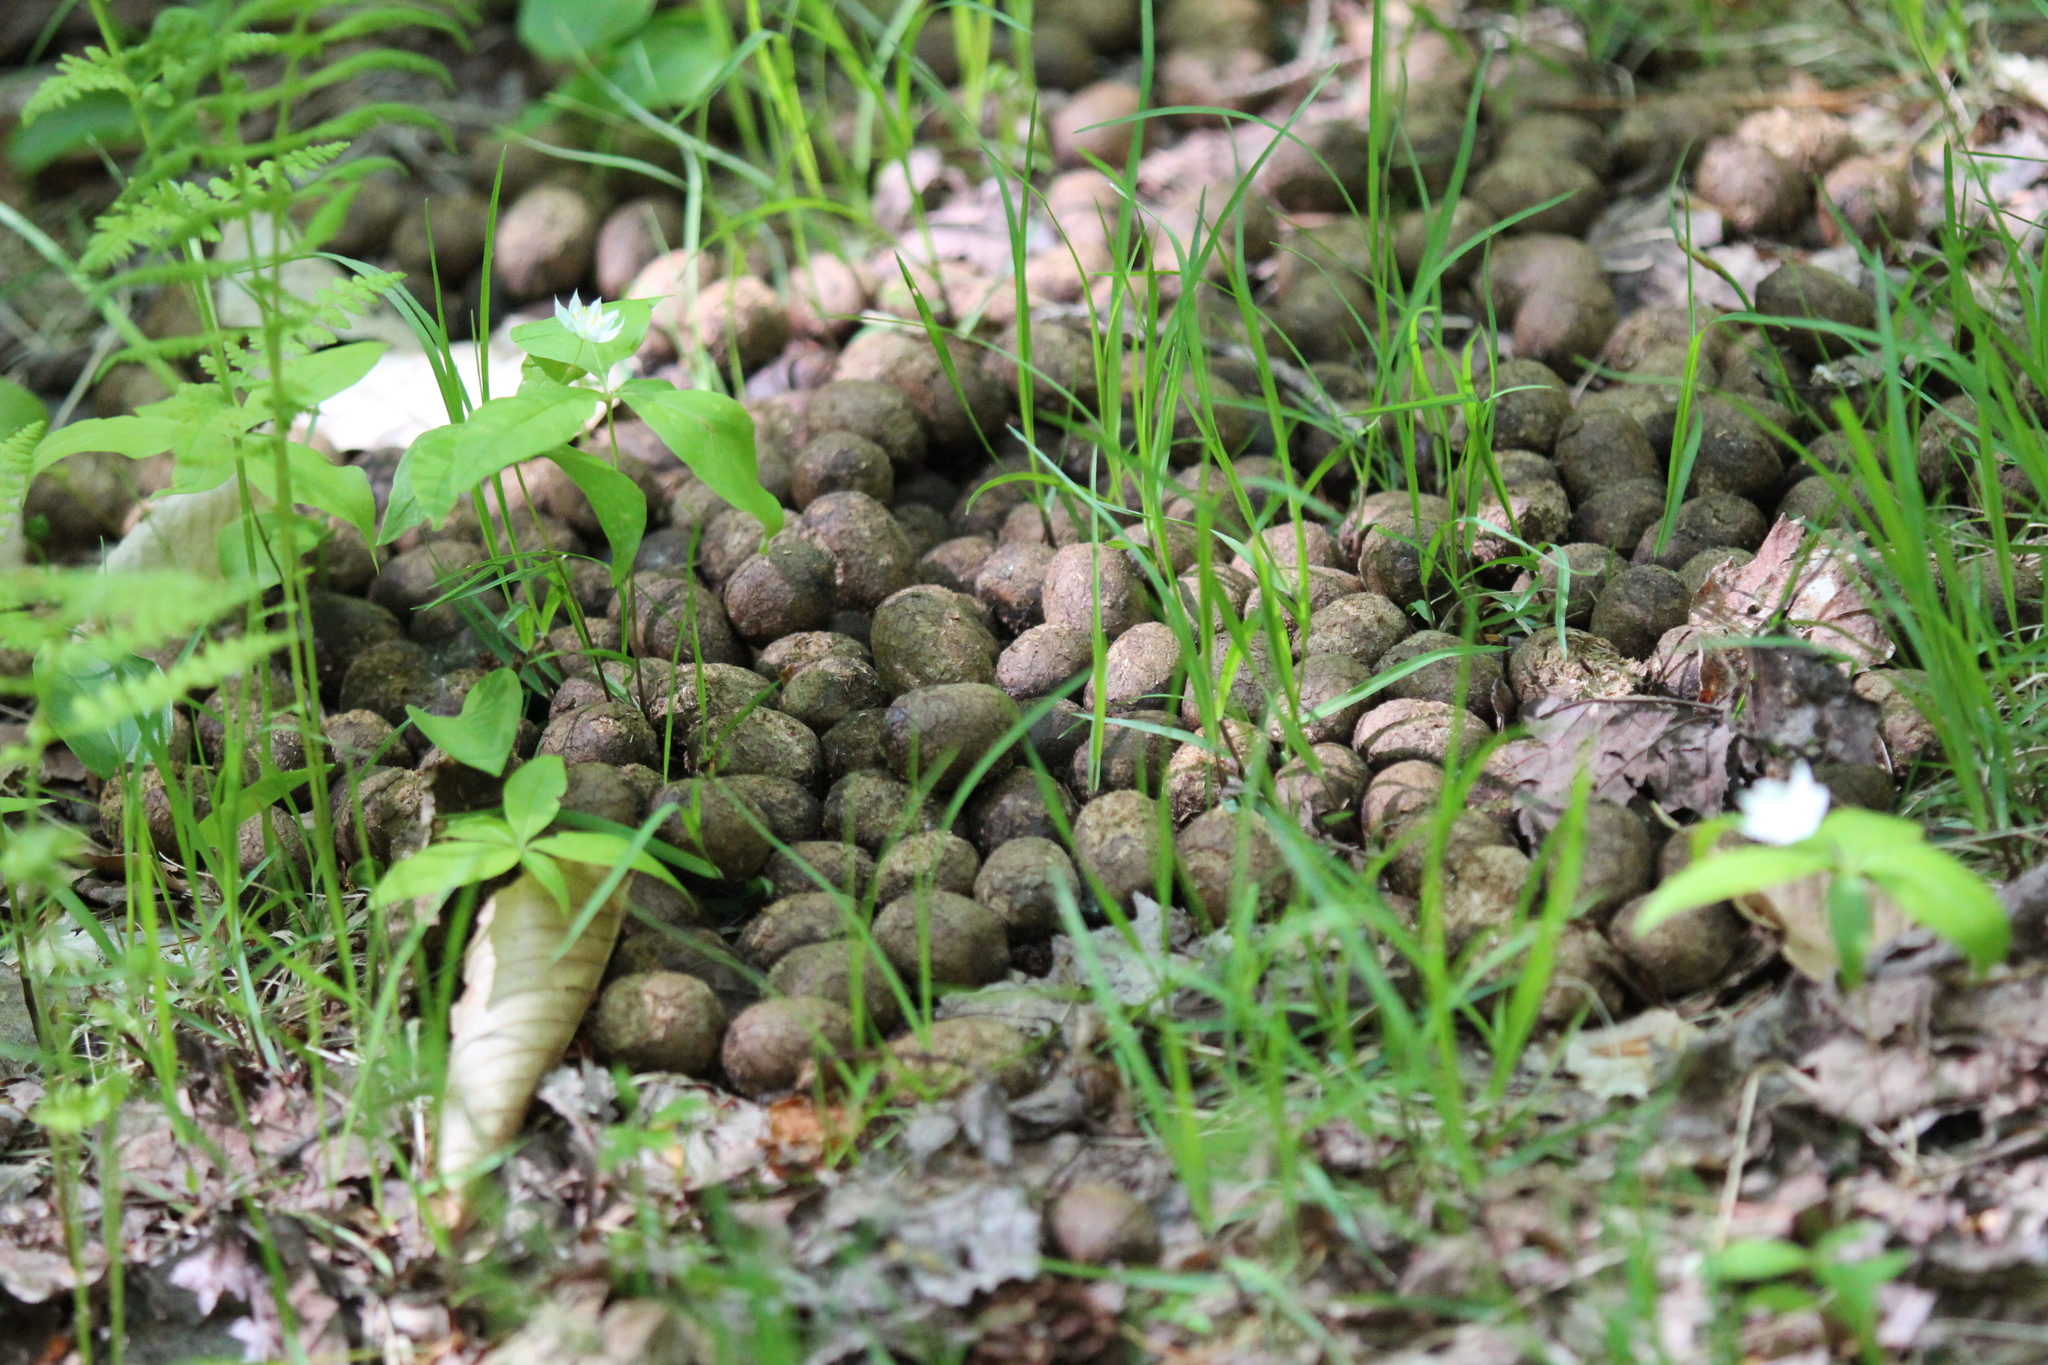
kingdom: Animalia
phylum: Chordata
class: Mammalia
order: Artiodactyla
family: Cervidae
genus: Alces
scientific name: Alces alces
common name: Moose
